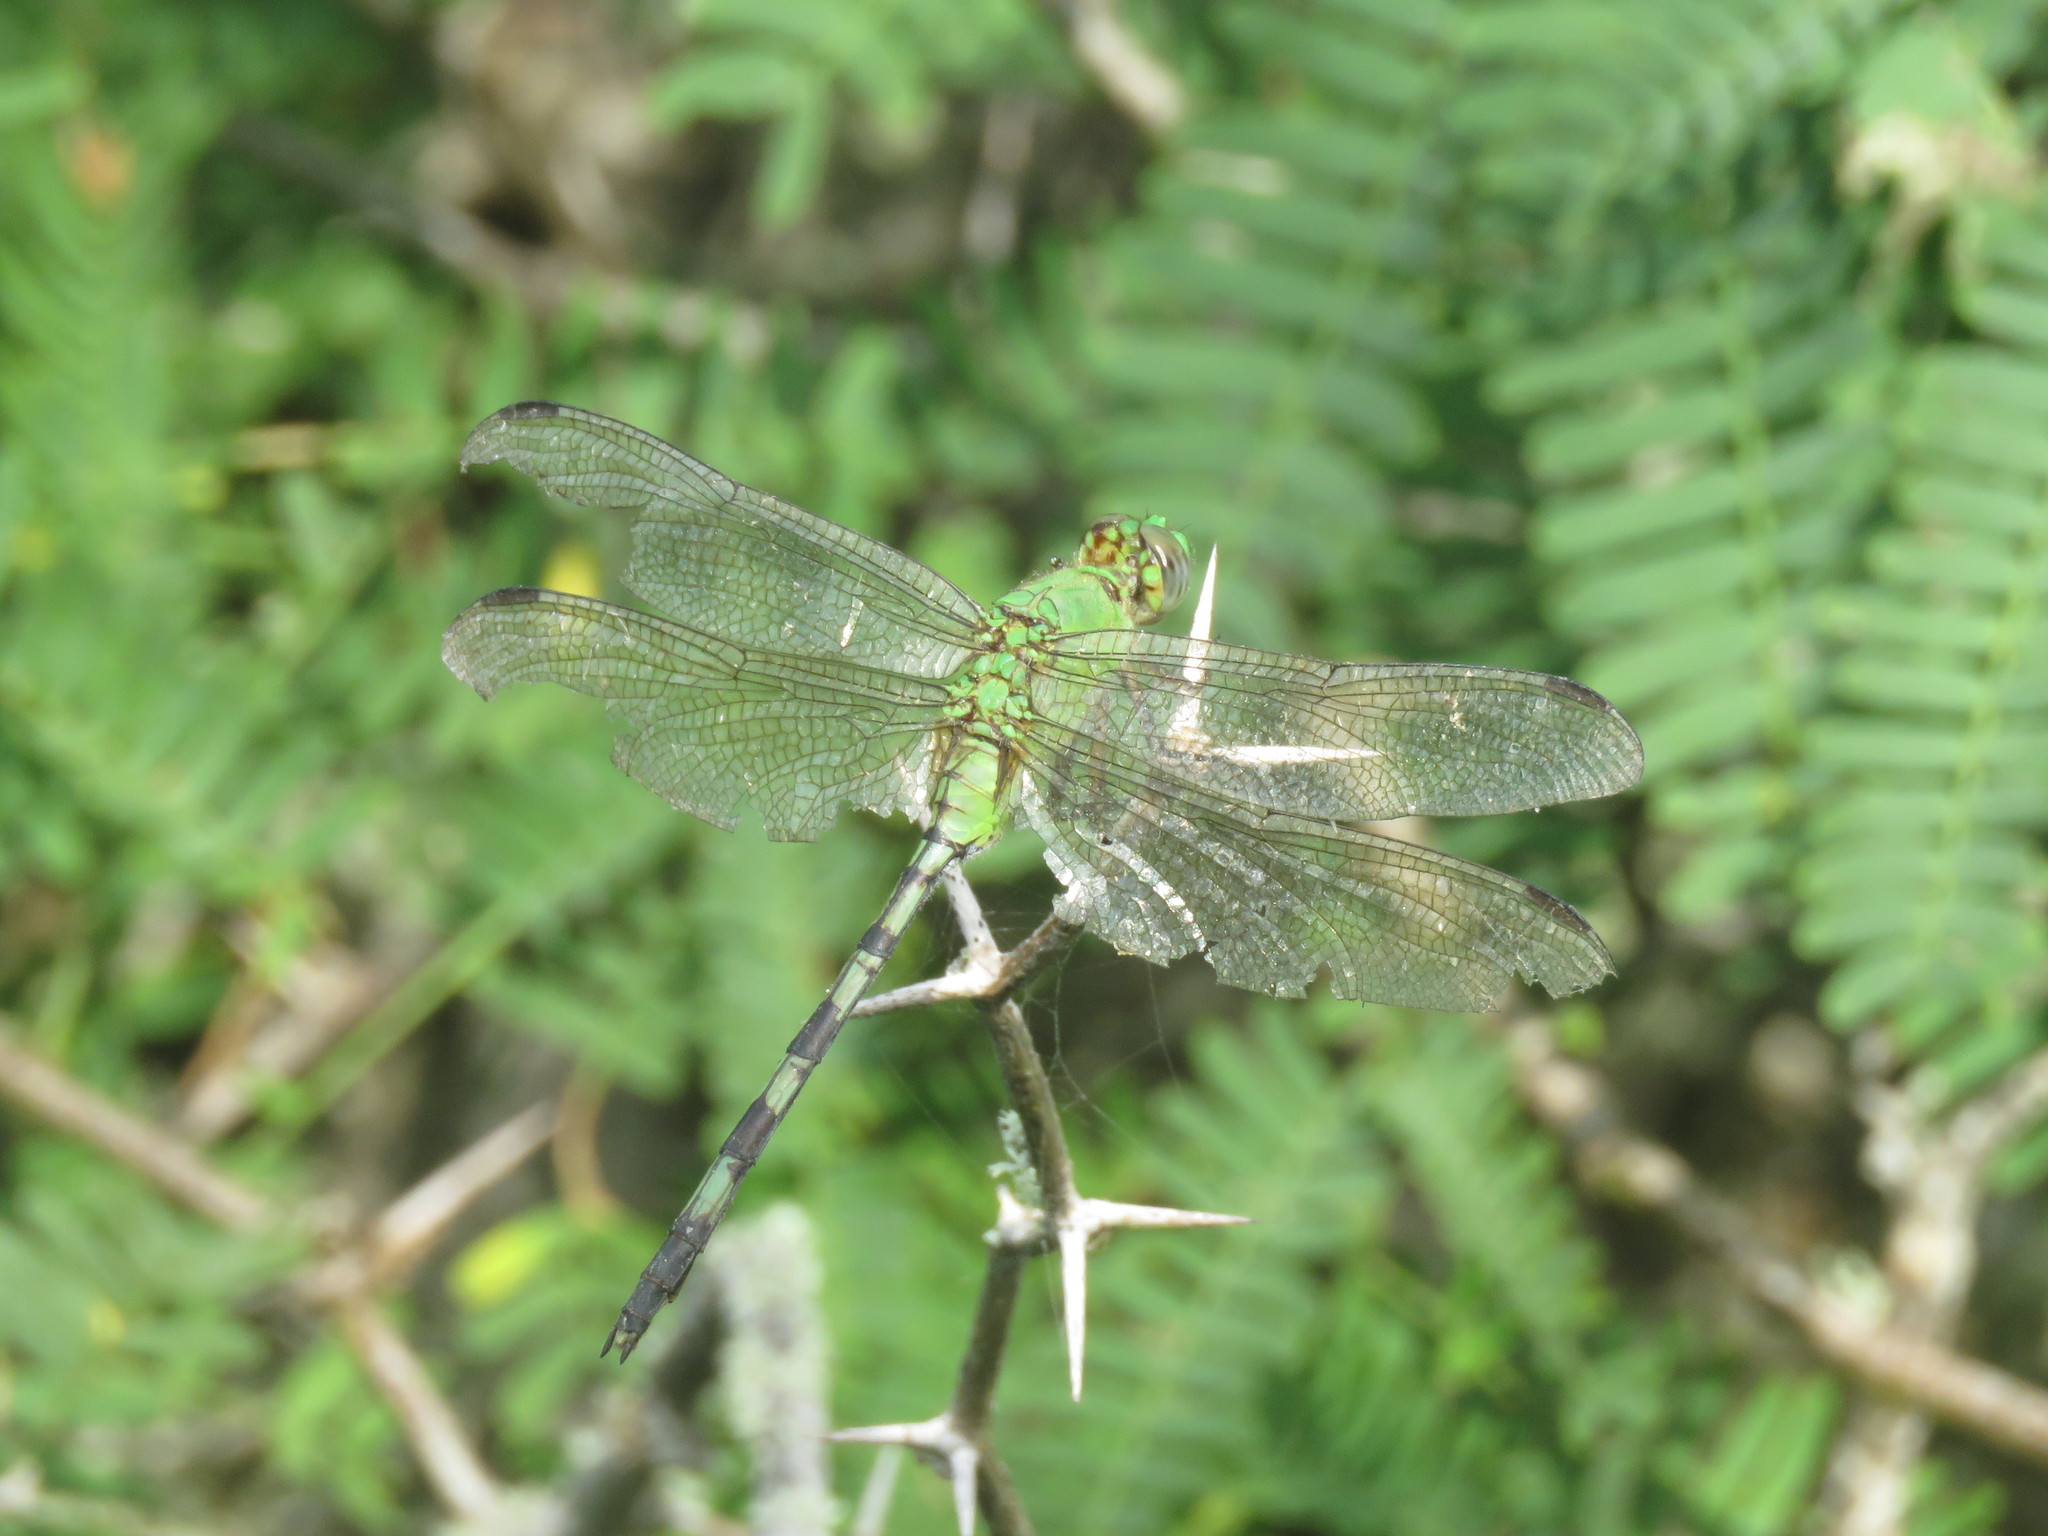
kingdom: Animalia
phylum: Arthropoda
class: Insecta
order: Odonata
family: Libellulidae
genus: Erythemis
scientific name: Erythemis vesiculosa
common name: Great pondhawk
